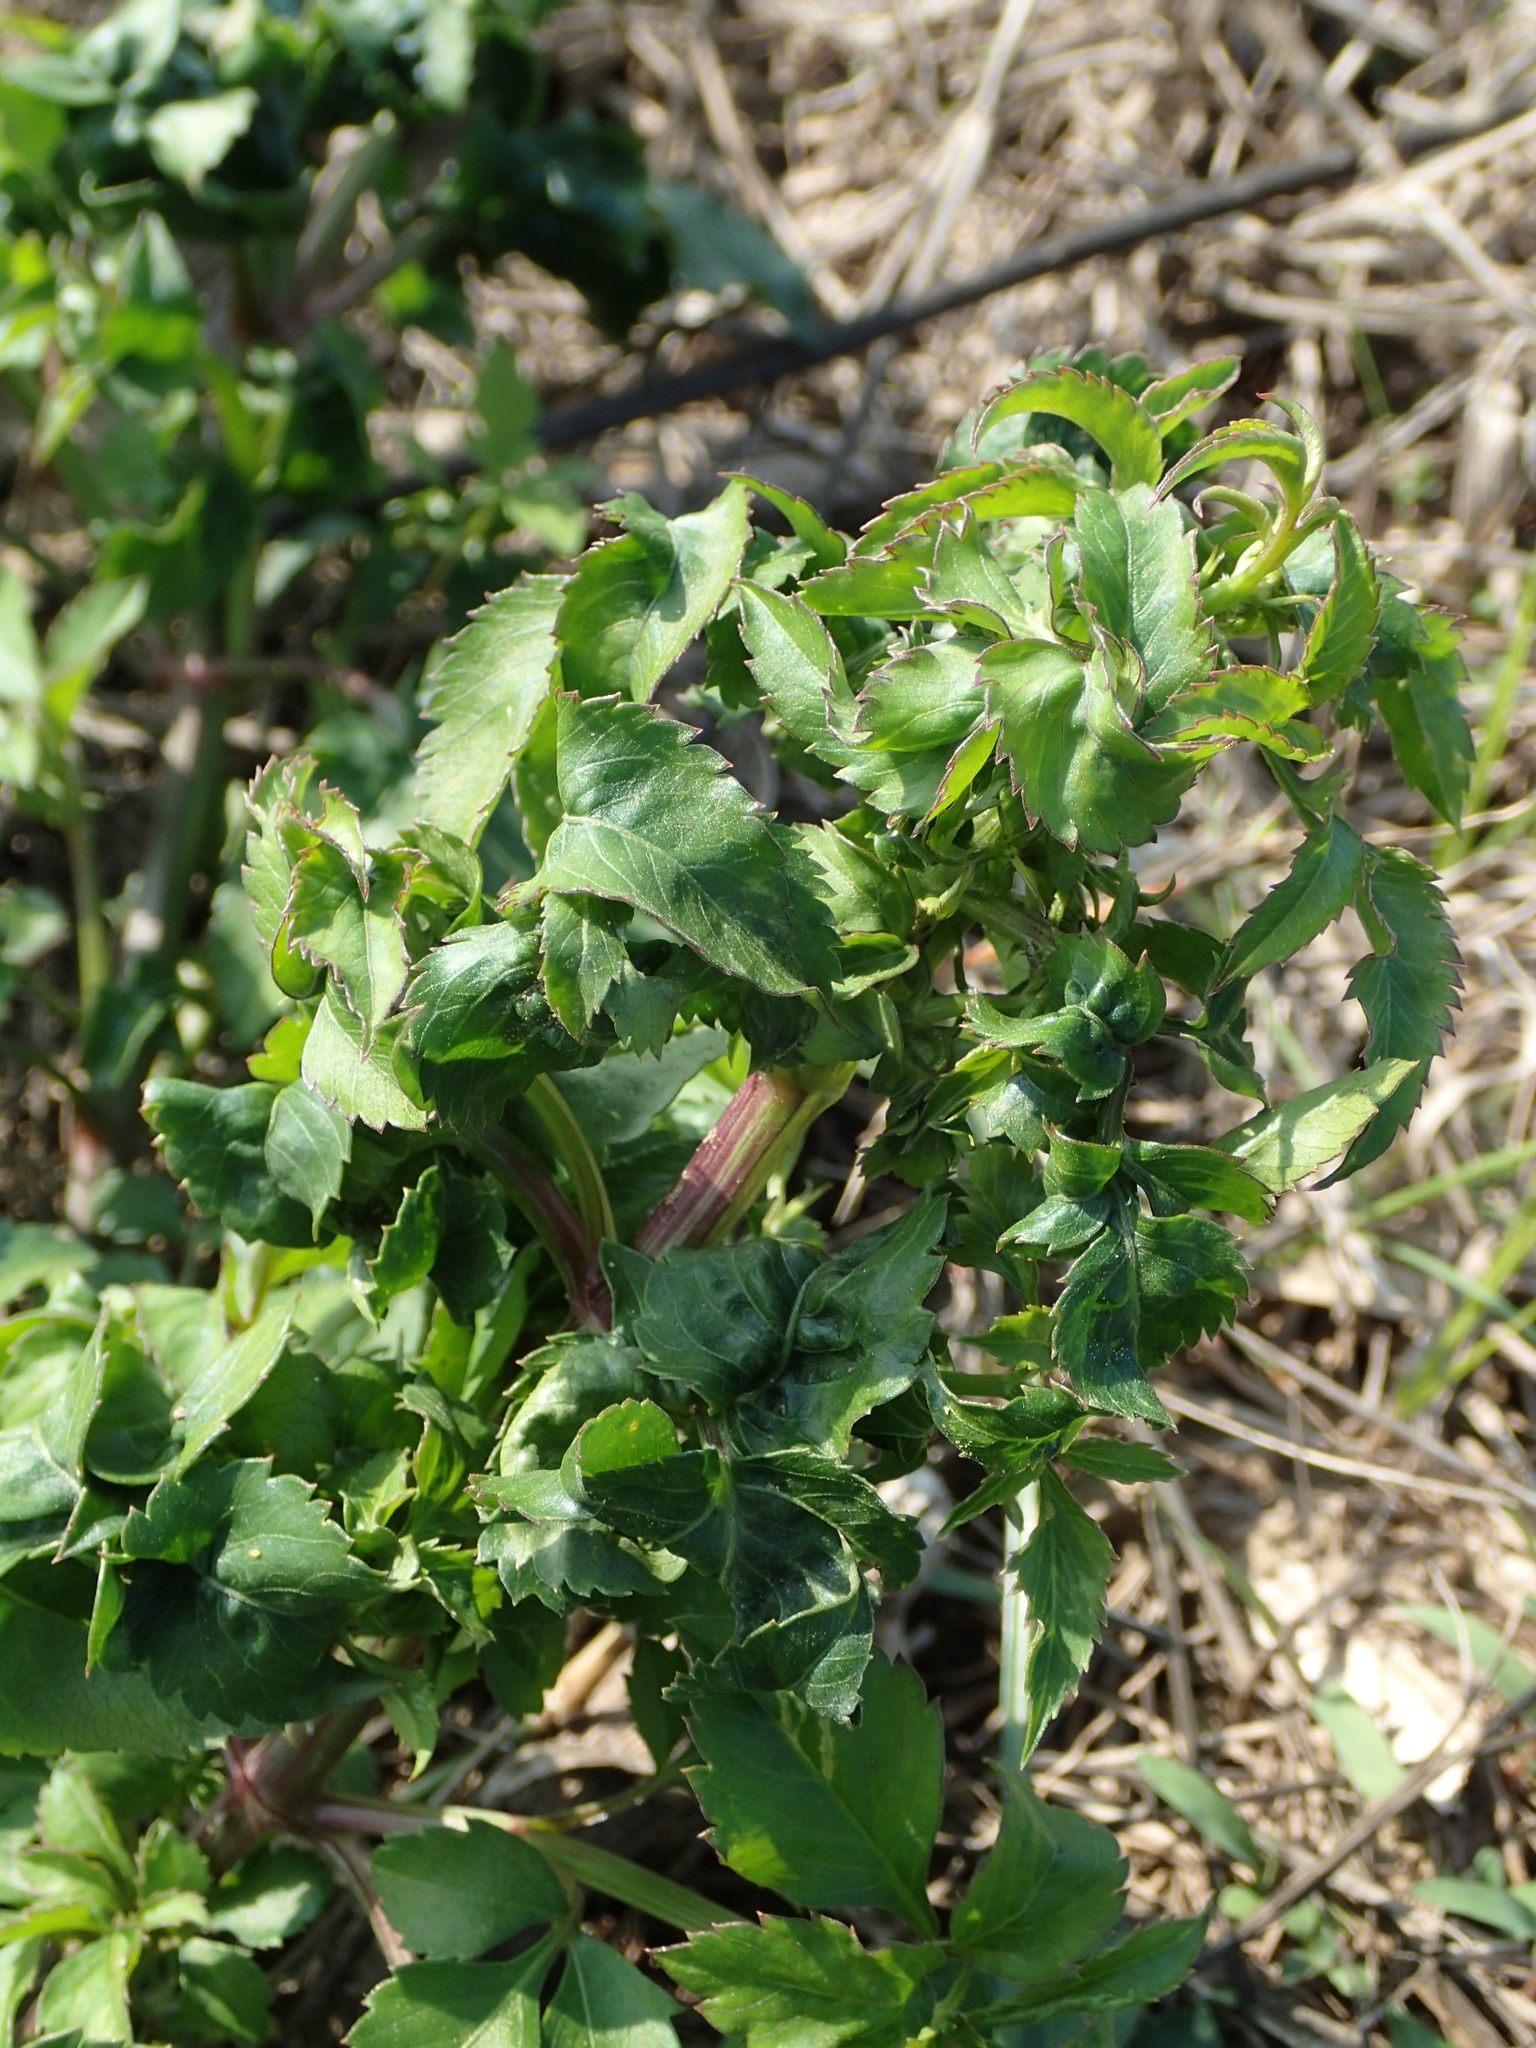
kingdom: Plantae
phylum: Tracheophyta
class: Magnoliopsida
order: Asterales
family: Asteraceae
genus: Bidens
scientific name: Bidens alba
